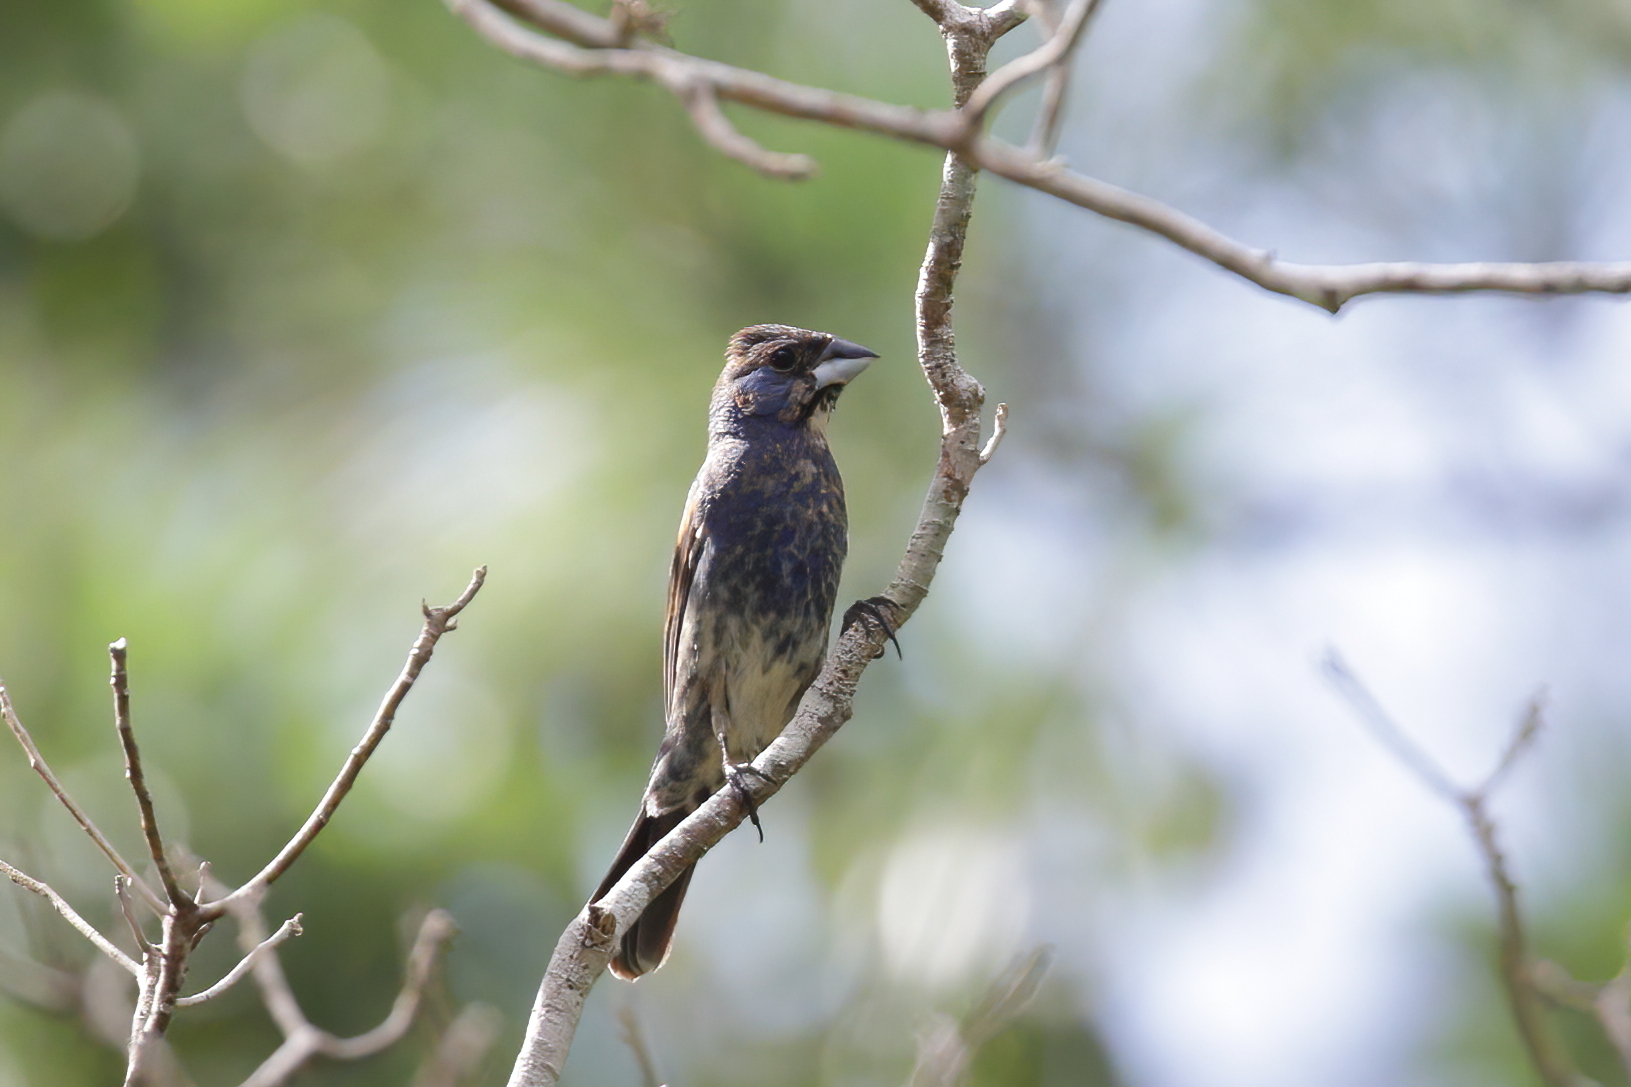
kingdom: Animalia
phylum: Chordata
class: Aves
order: Passeriformes
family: Cardinalidae
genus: Passerina
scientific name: Passerina caerulea
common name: Blue grosbeak
